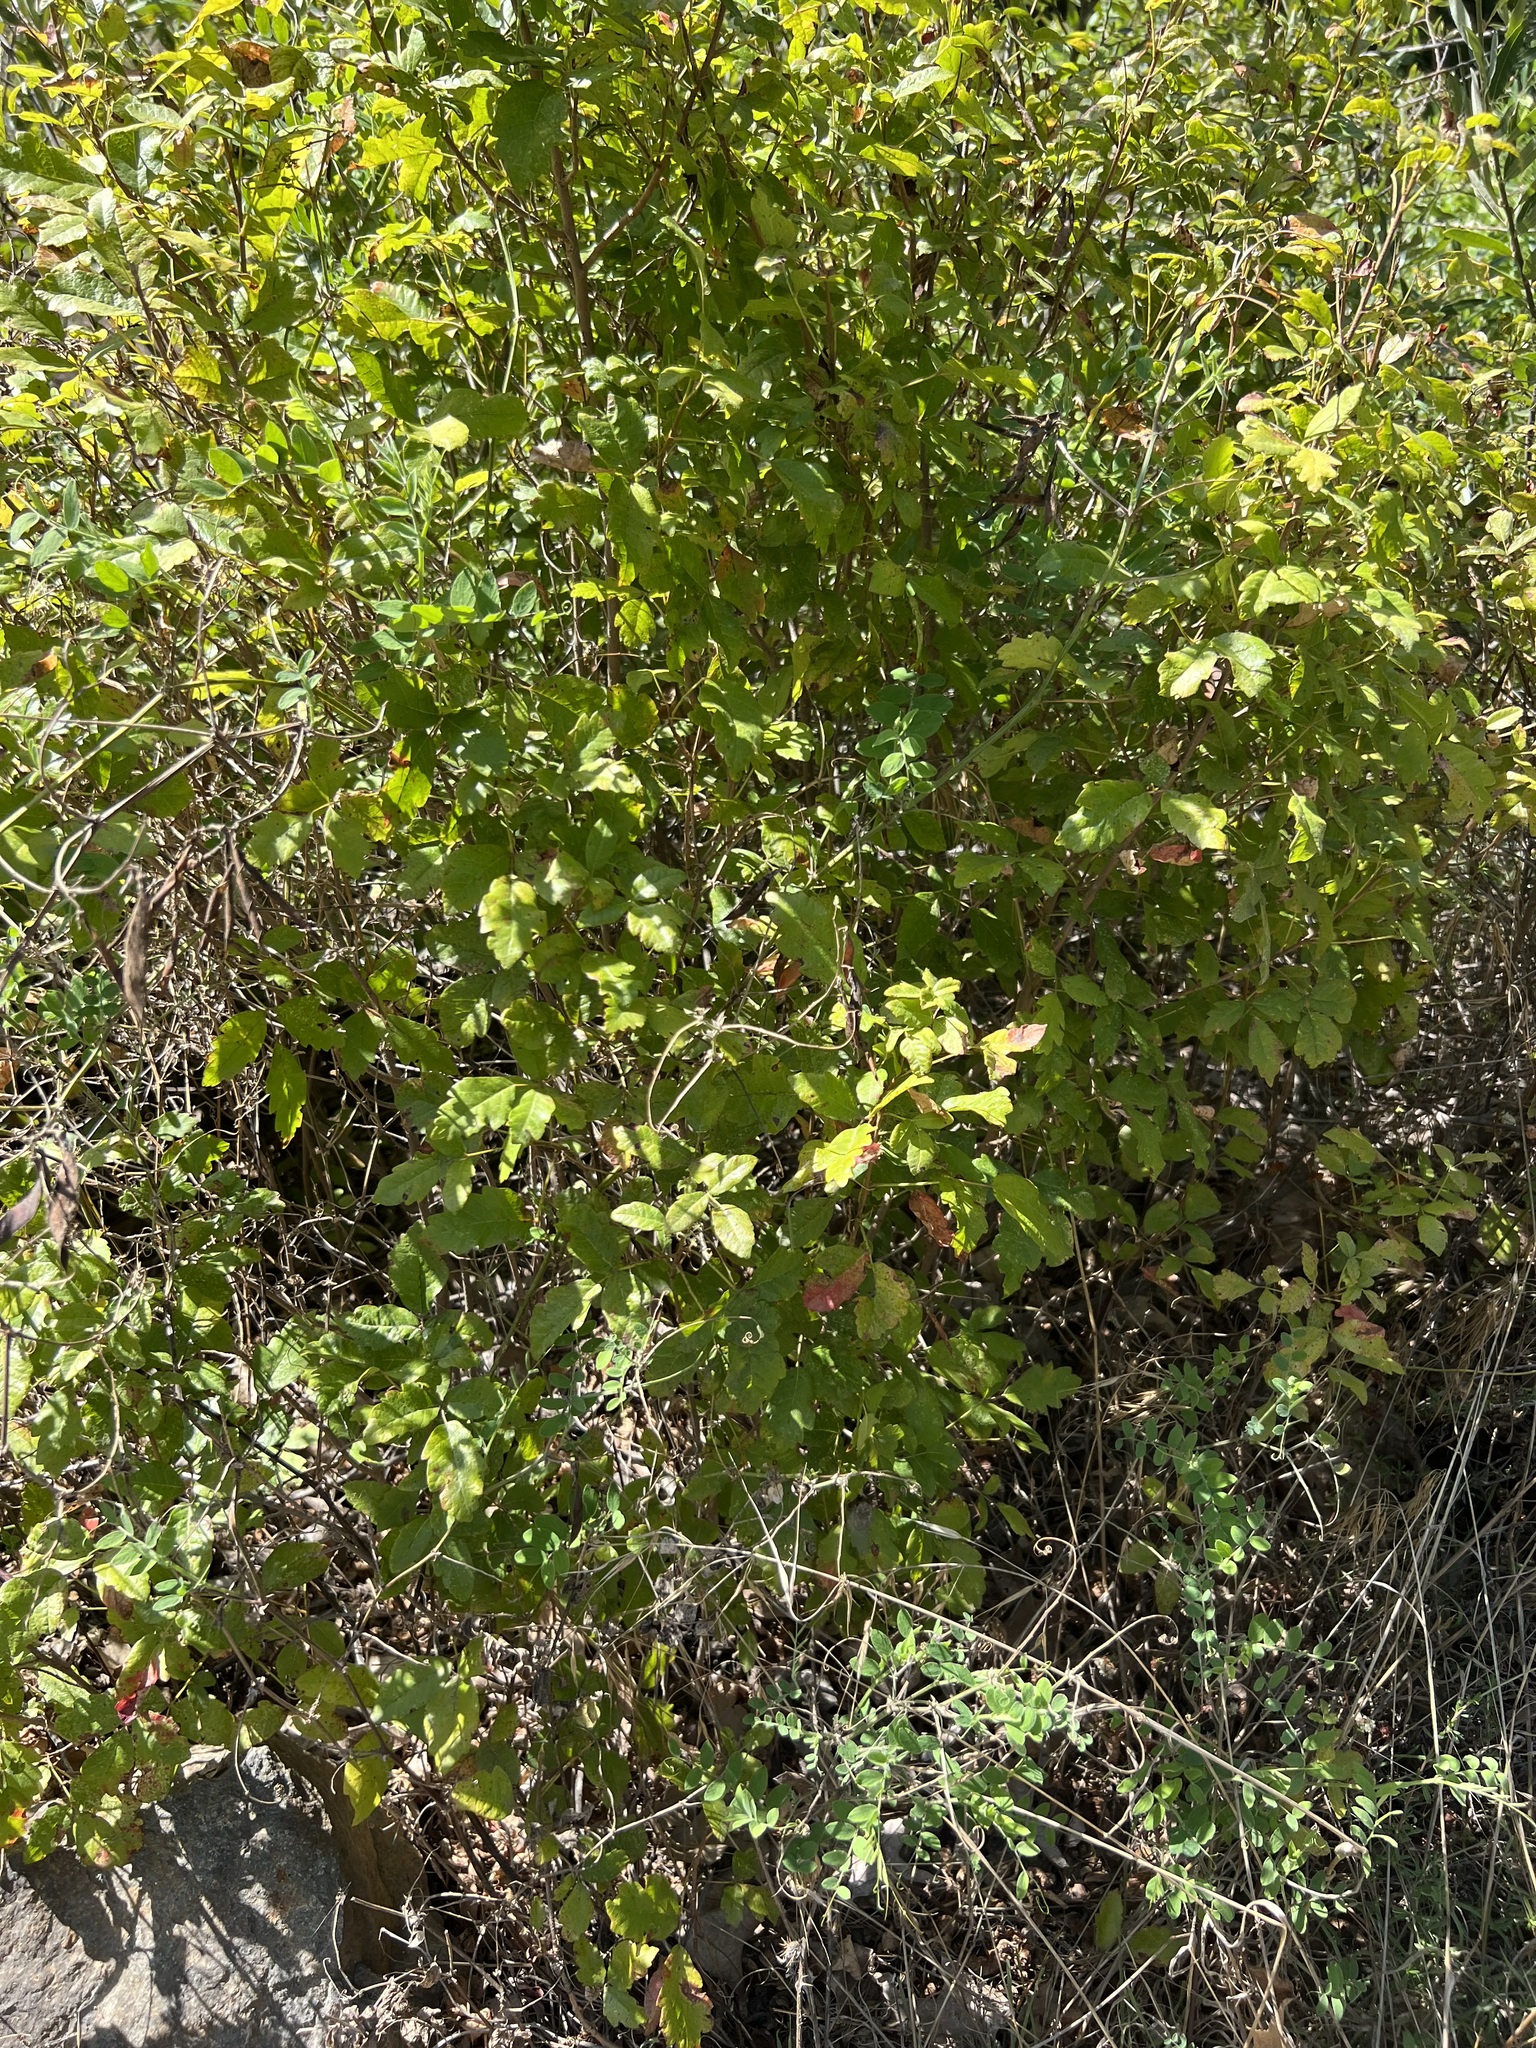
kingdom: Plantae
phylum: Tracheophyta
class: Magnoliopsida
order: Sapindales
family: Anacardiaceae
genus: Toxicodendron
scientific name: Toxicodendron diversilobum
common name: Pacific poison-oak
